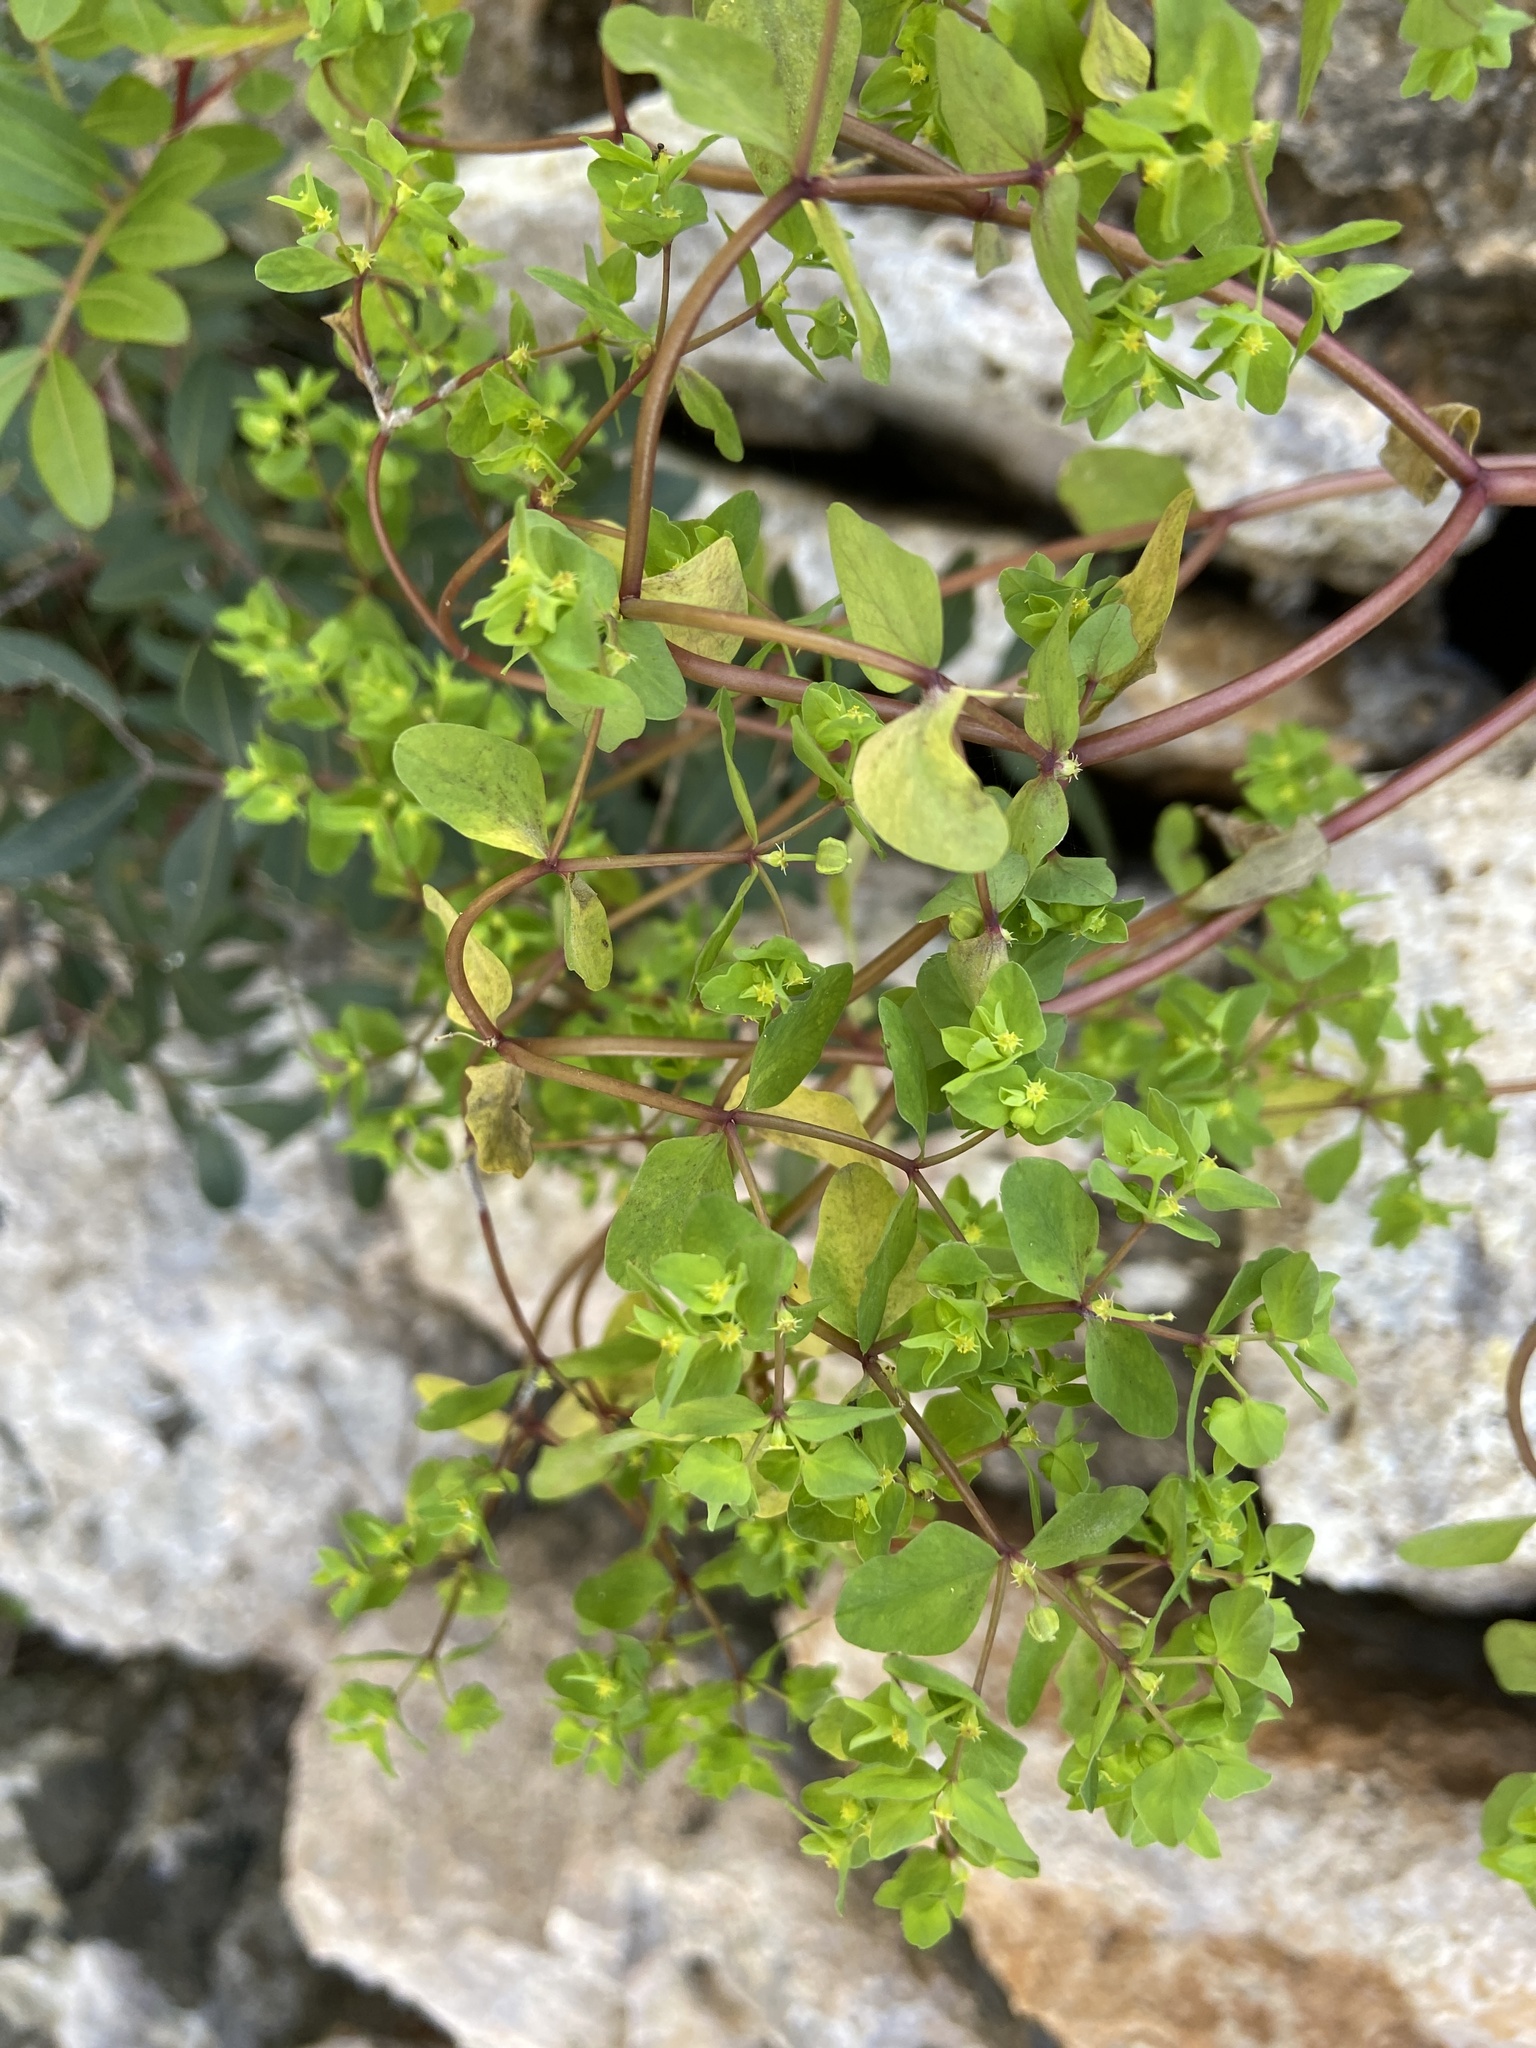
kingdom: Plantae
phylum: Tracheophyta
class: Magnoliopsida
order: Malpighiales
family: Euphorbiaceae
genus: Euphorbia
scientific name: Euphorbia peplus
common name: Petty spurge
